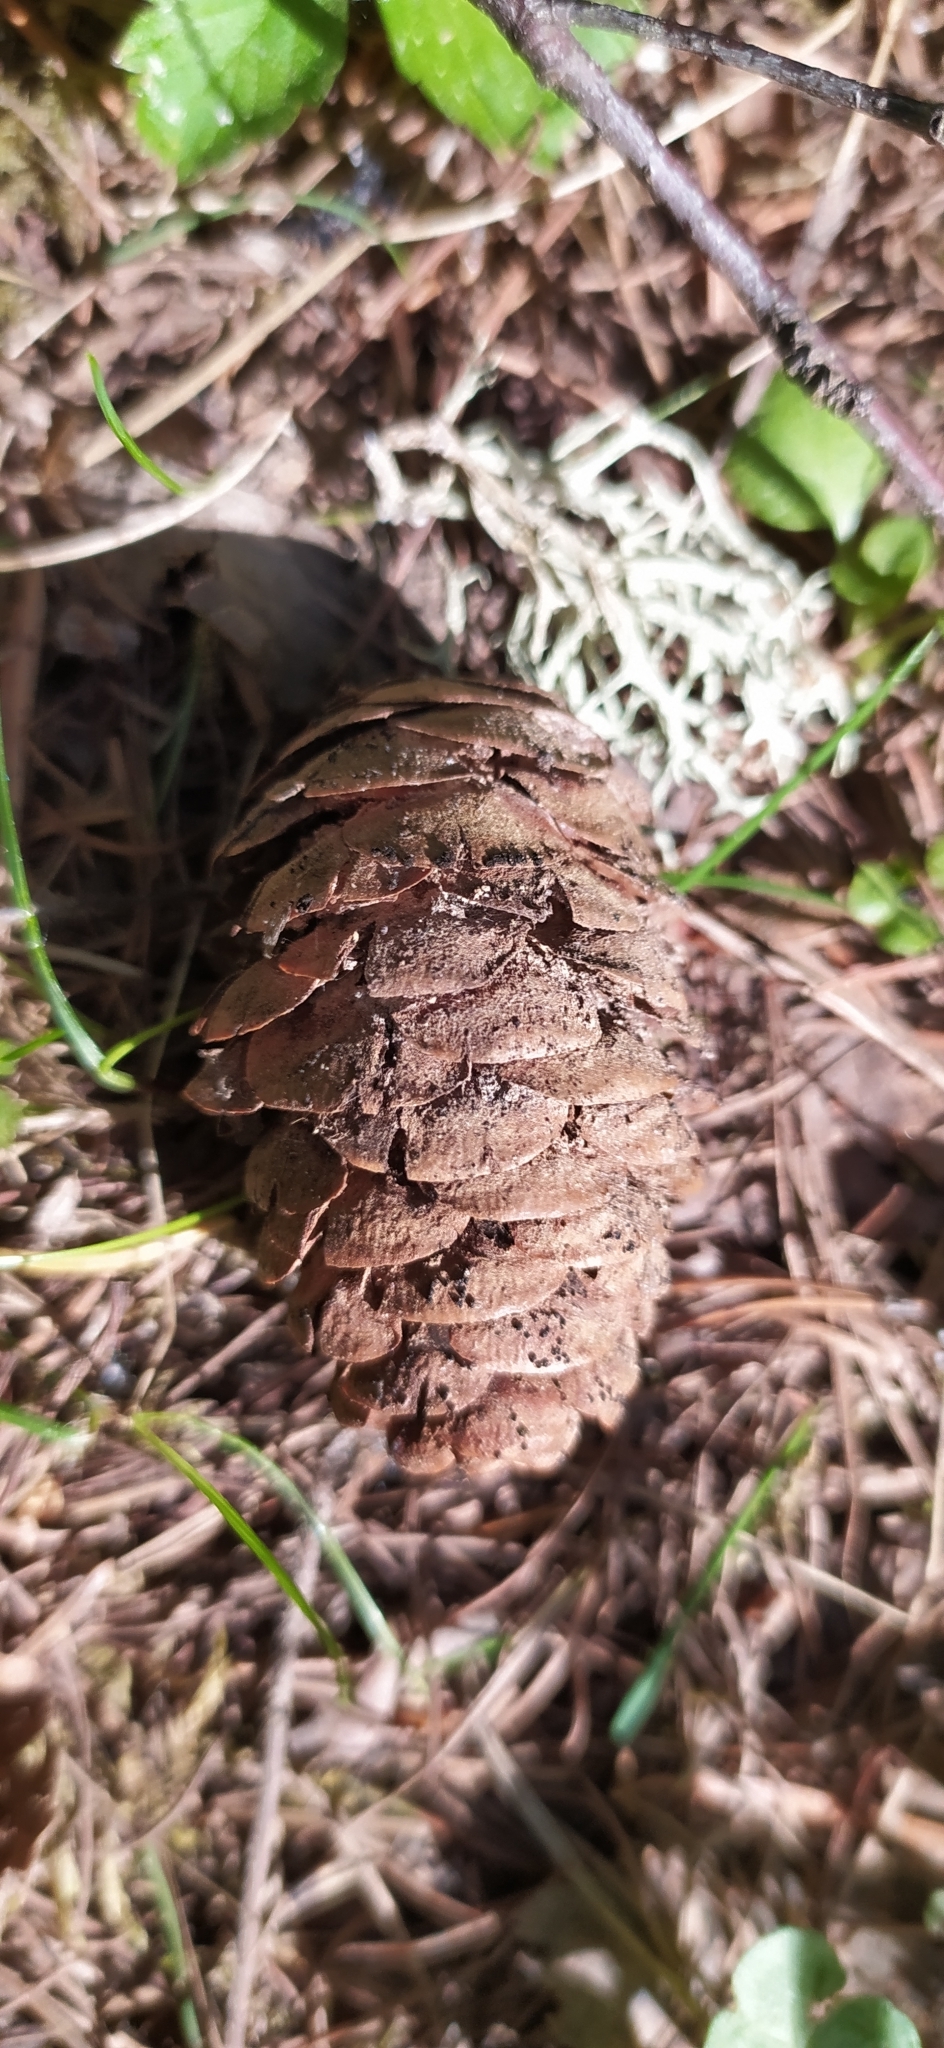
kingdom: Plantae
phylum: Tracheophyta
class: Pinopsida
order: Pinales
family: Pinaceae
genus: Picea
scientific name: Picea obovata
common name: Siberian spruce
